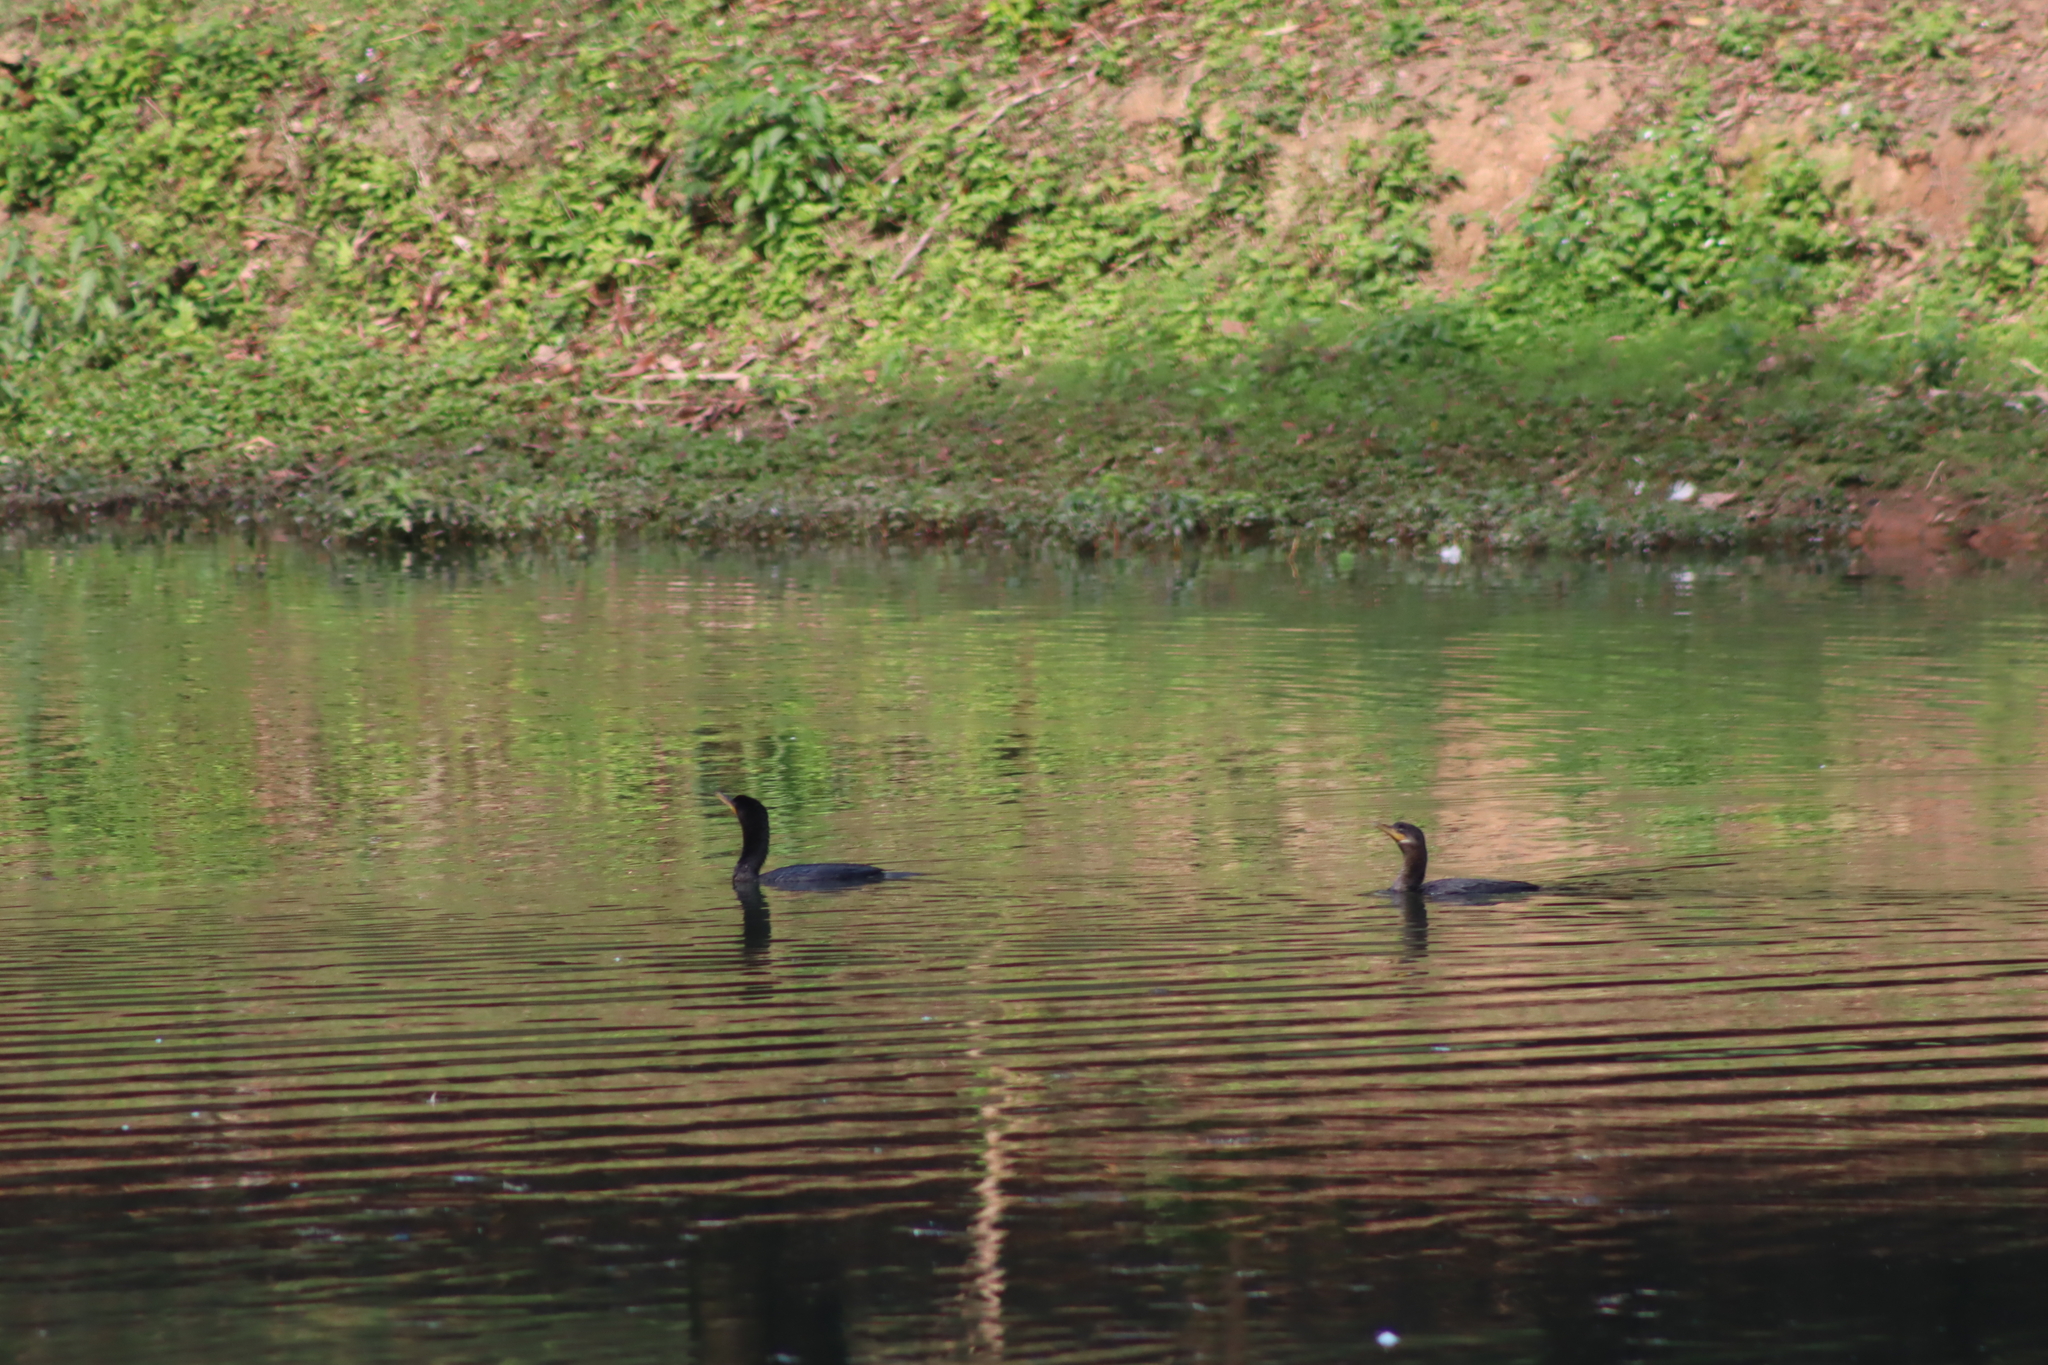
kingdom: Animalia
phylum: Chordata
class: Aves
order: Suliformes
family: Phalacrocoracidae
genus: Phalacrocorax
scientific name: Phalacrocorax brasilianus
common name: Neotropic cormorant
